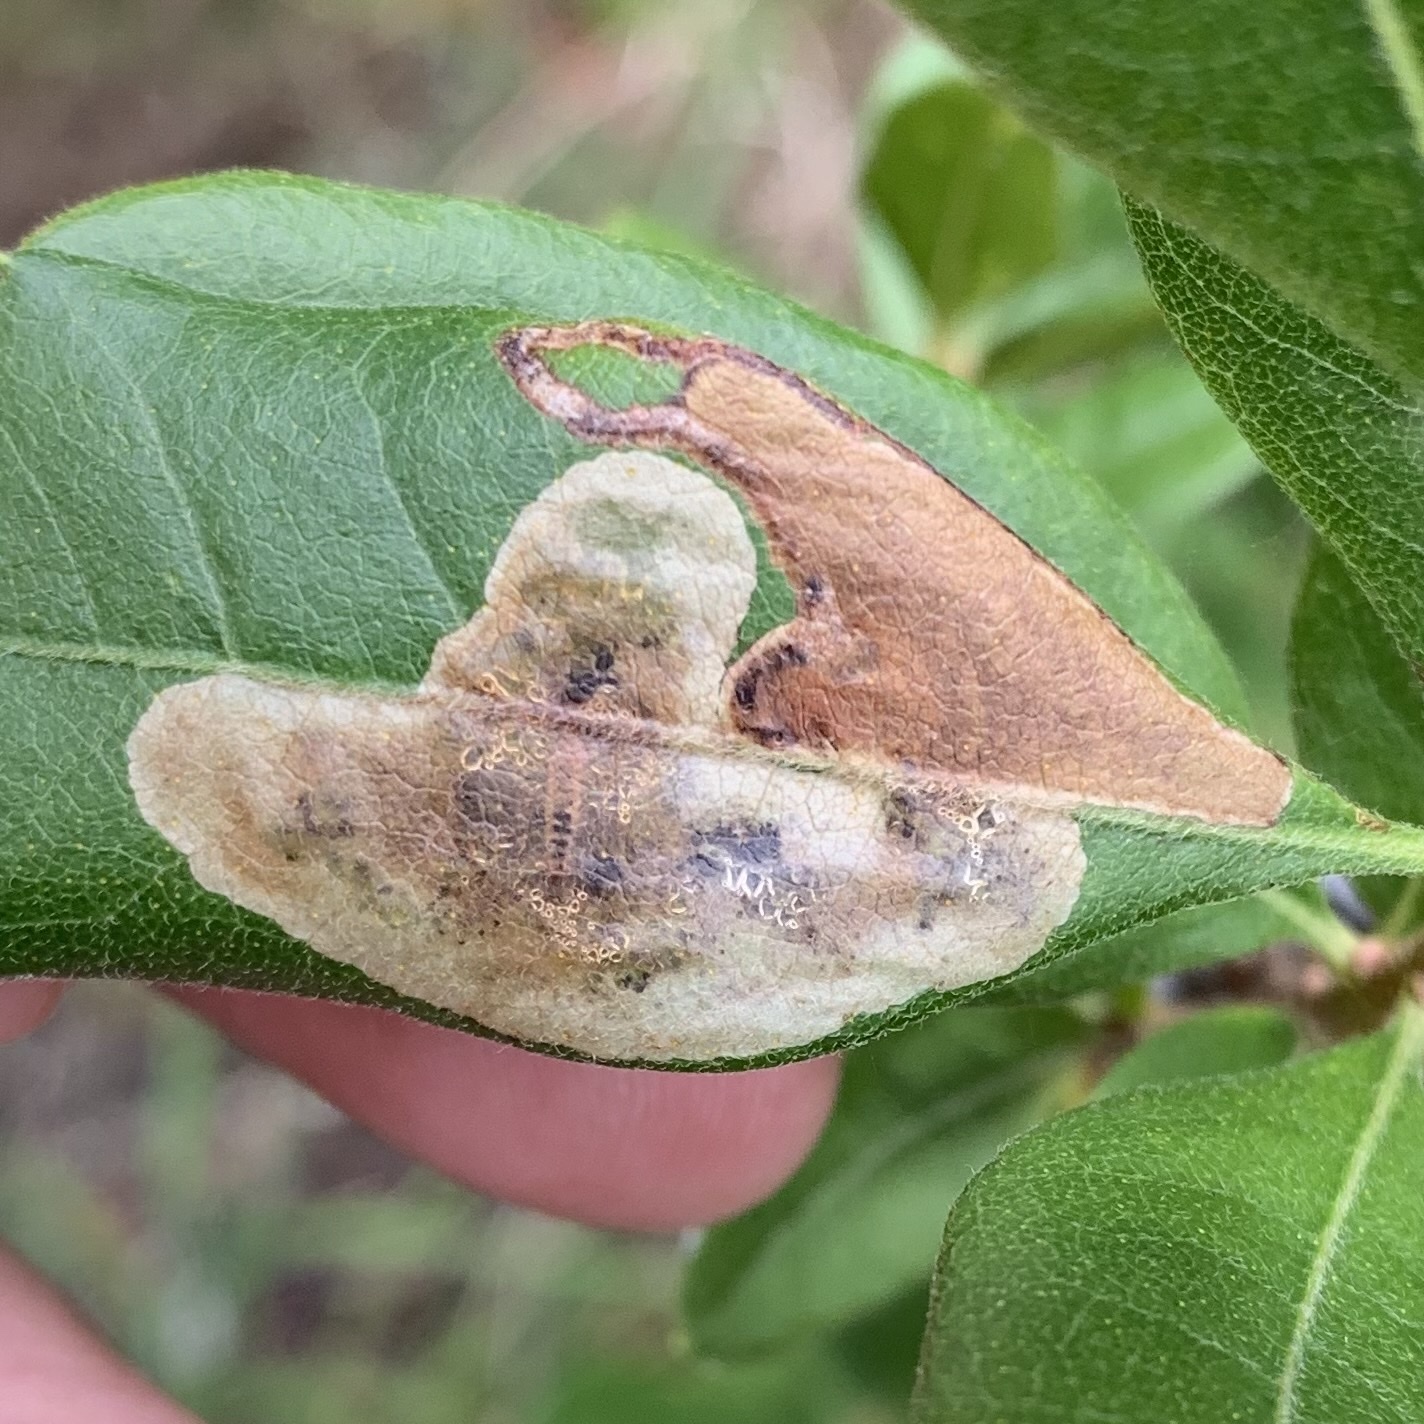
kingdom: Animalia
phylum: Arthropoda
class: Insecta
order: Lepidoptera
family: Gracillariidae
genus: Cameraria
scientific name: Cameraria picturatella
